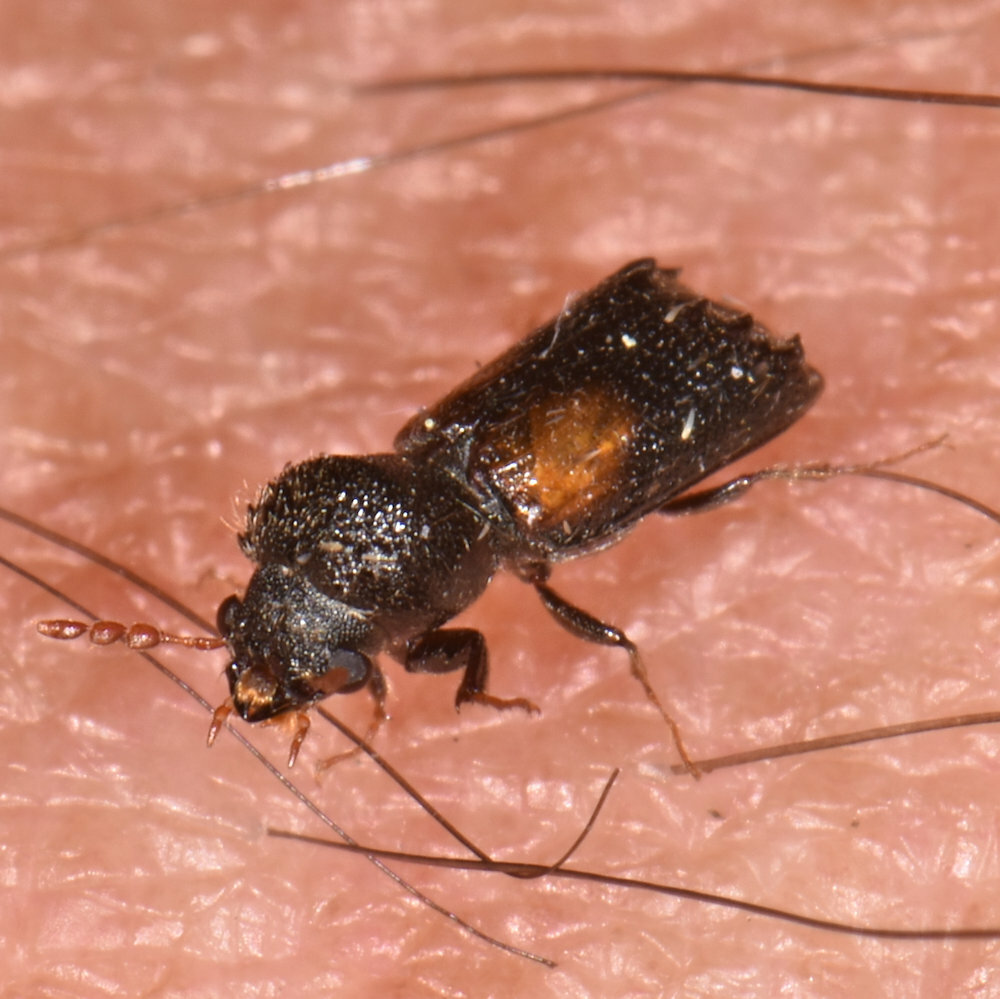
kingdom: Animalia
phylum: Arthropoda
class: Insecta
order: Coleoptera
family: Bostrichidae
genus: Xylobiops
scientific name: Xylobiops basilaris
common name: Red-shouldered bostrichid
